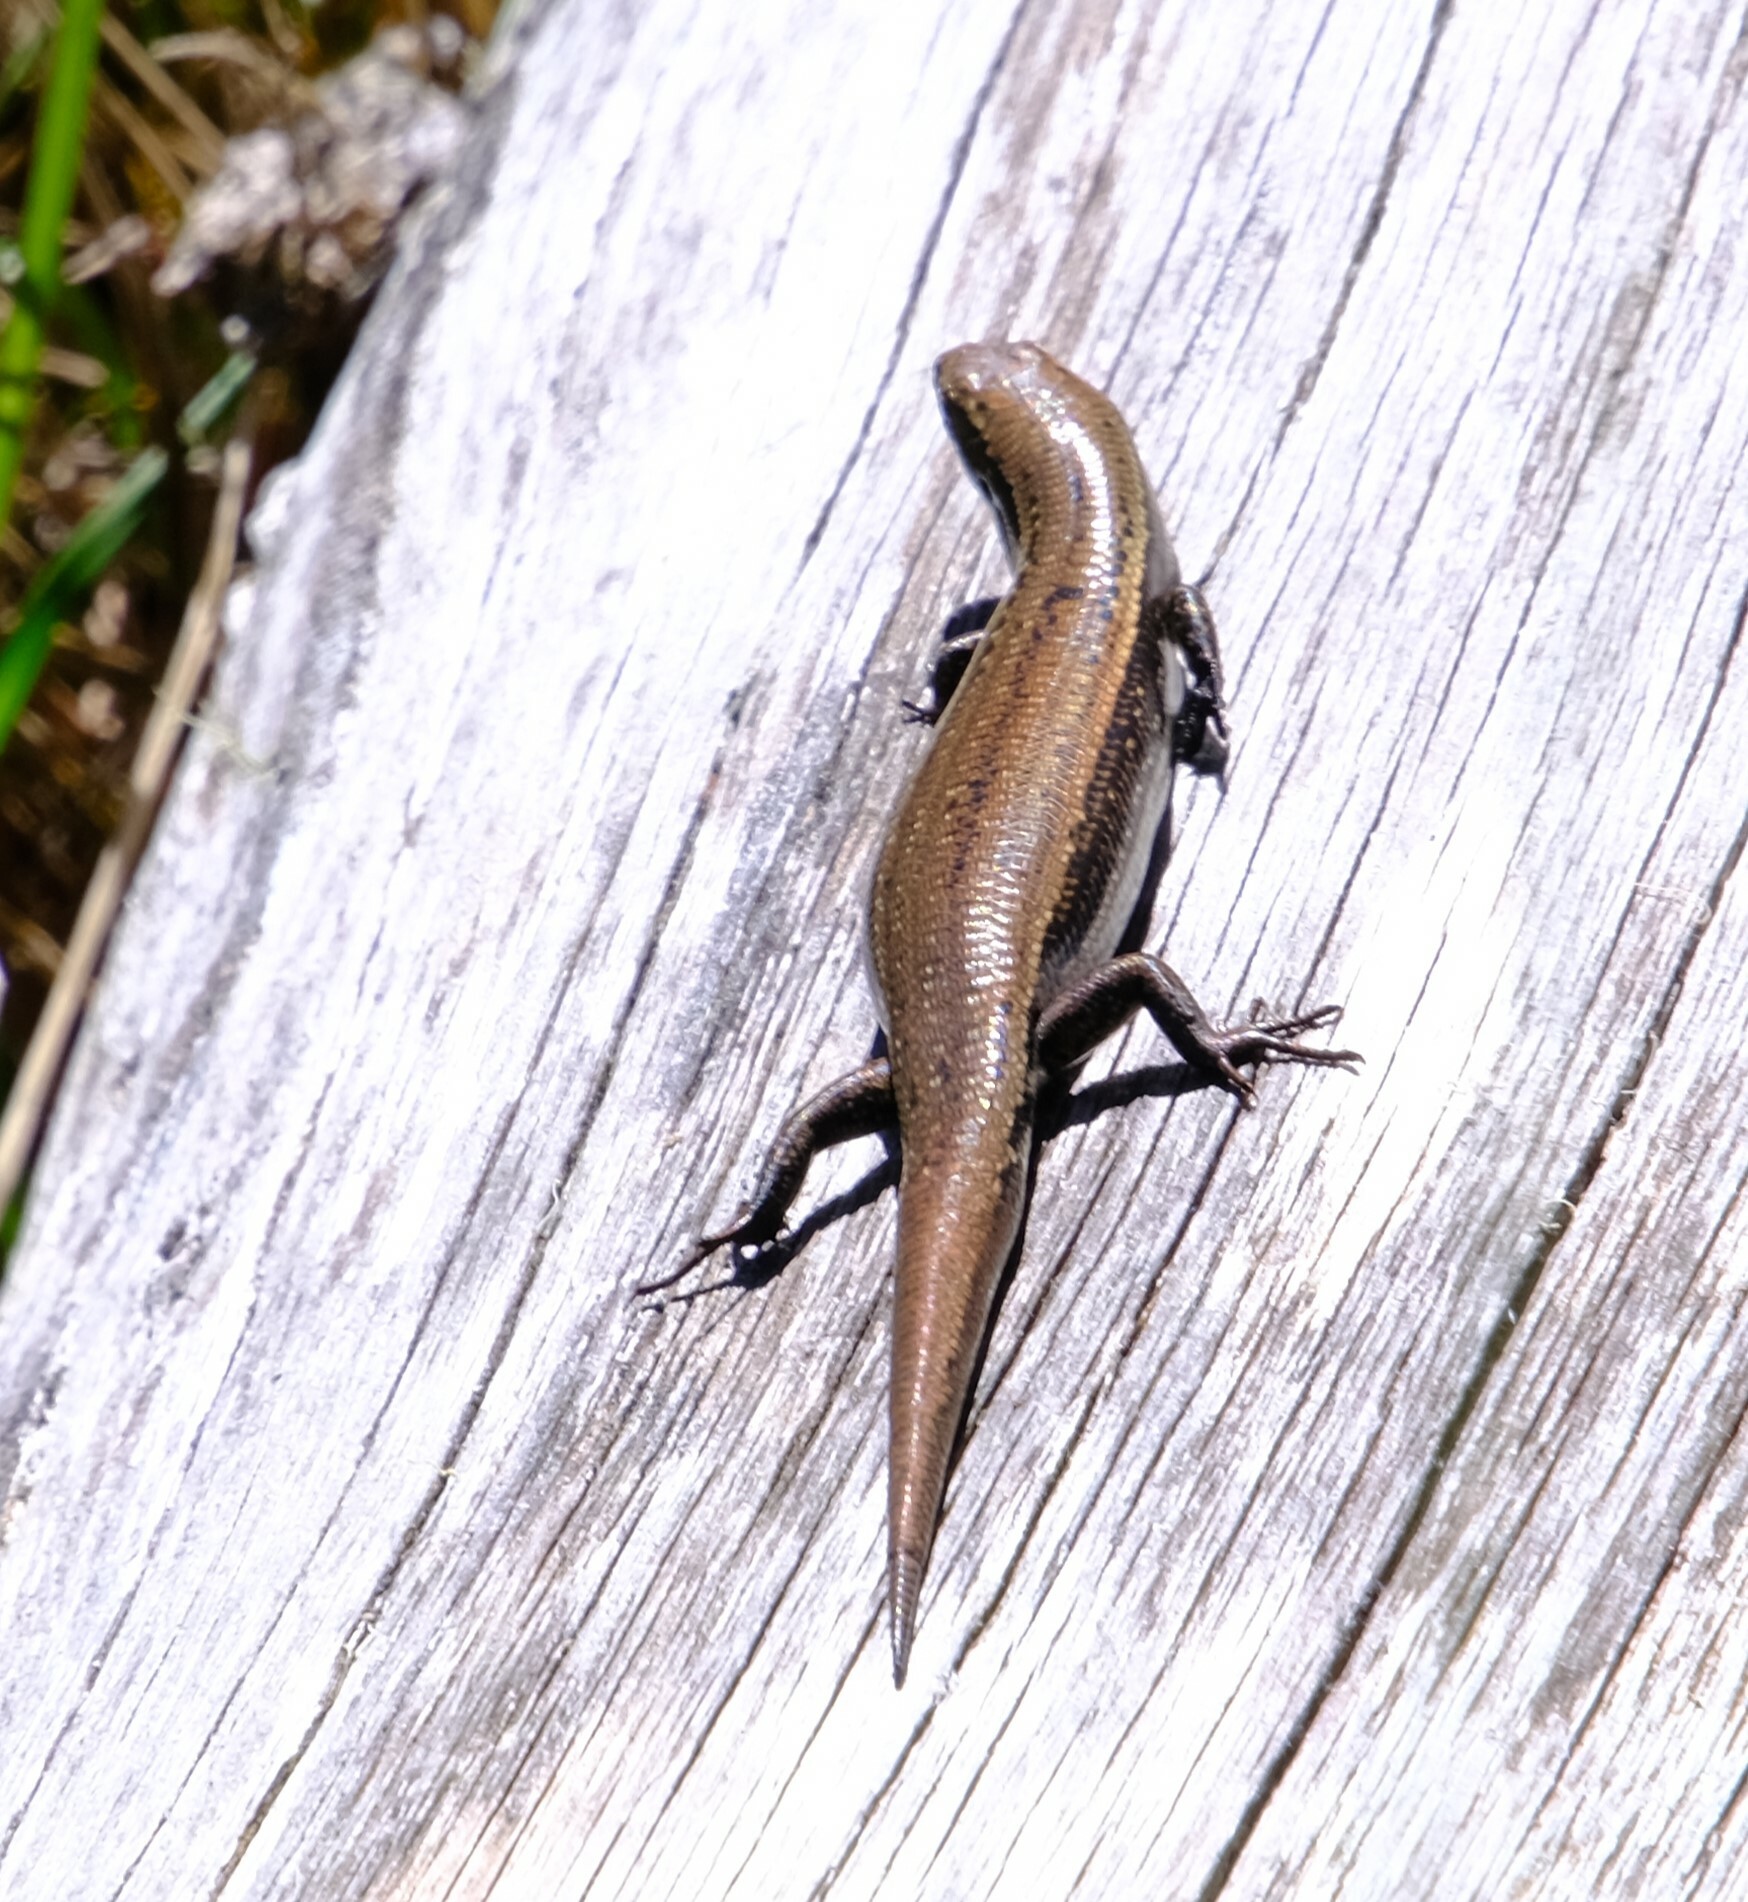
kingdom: Animalia
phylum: Chordata
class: Squamata
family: Scincidae
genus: Carinascincus
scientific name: Carinascincus metallicus
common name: Metallic cool-skink
